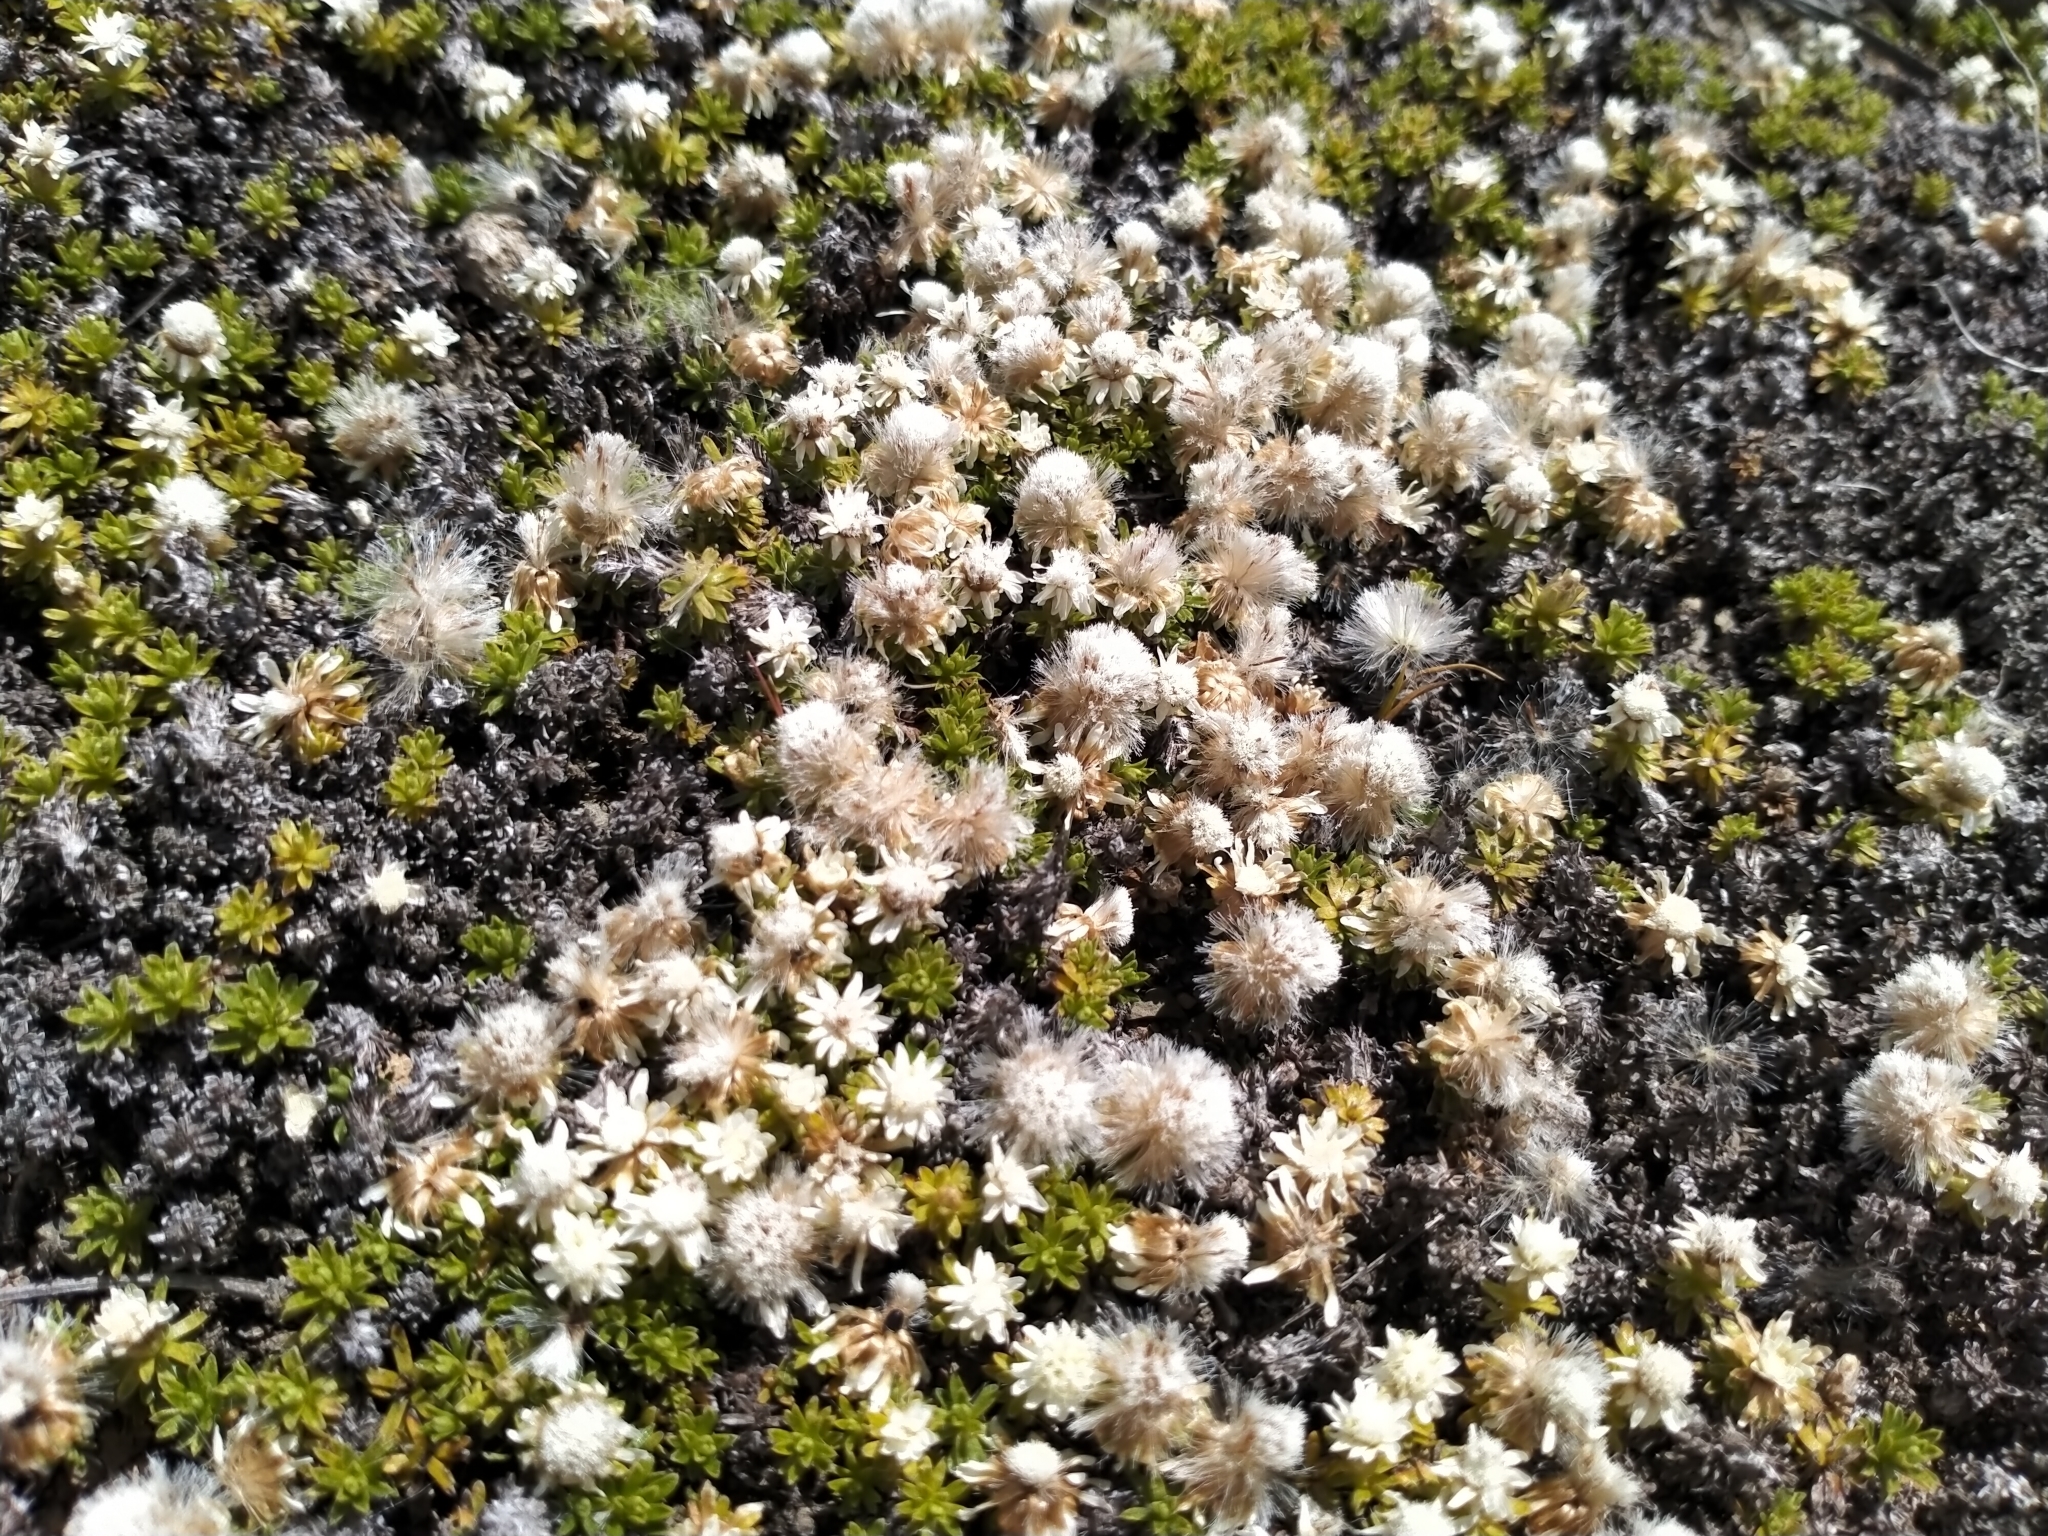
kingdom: Plantae
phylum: Tracheophyta
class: Magnoliopsida
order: Asterales
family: Asteraceae
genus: Raoulia
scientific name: Raoulia subsericea
